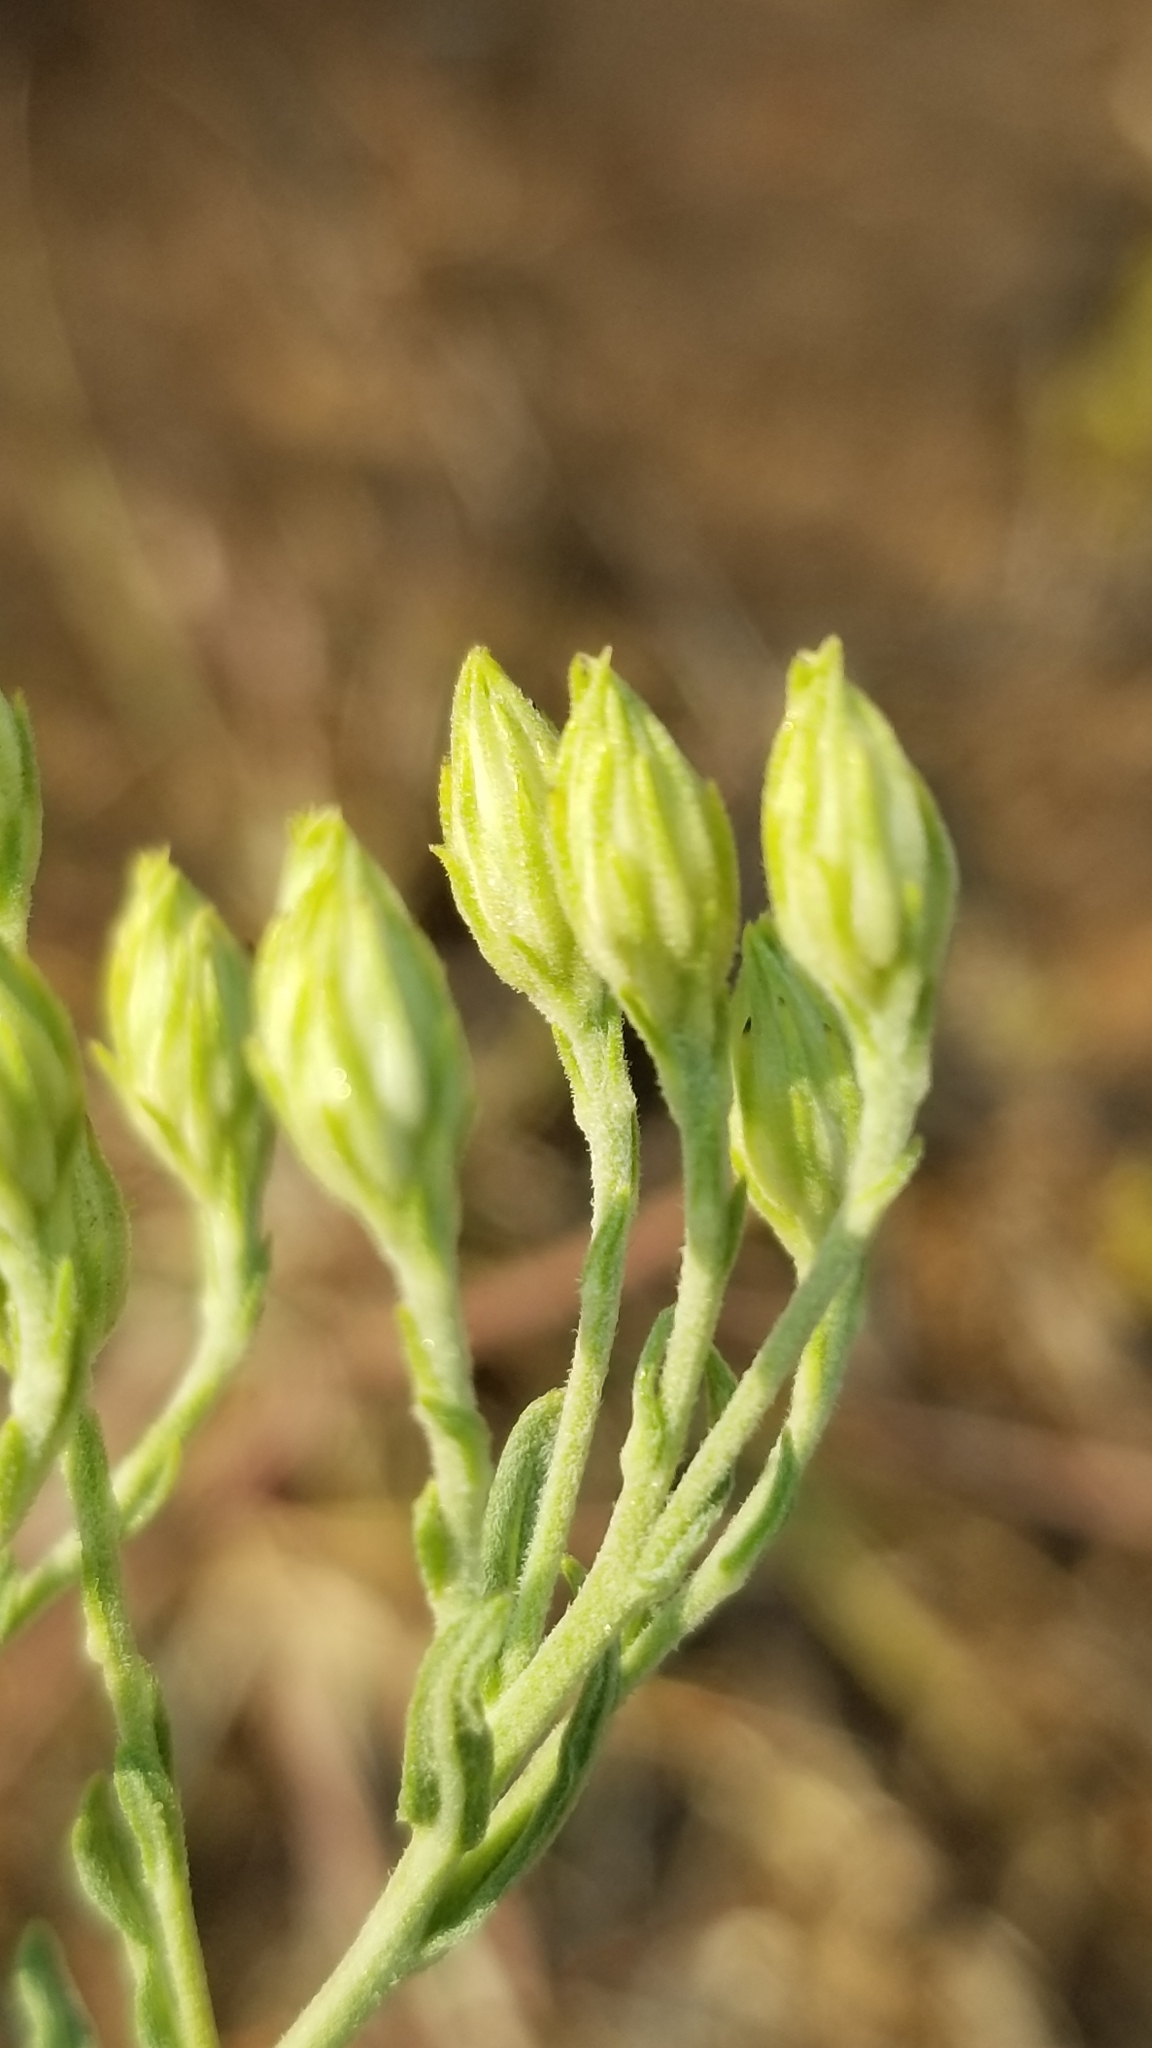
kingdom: Plantae
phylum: Tracheophyta
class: Magnoliopsida
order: Asterales
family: Asteraceae
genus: Brickellia
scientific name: Brickellia eupatorioides
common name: False boneset
